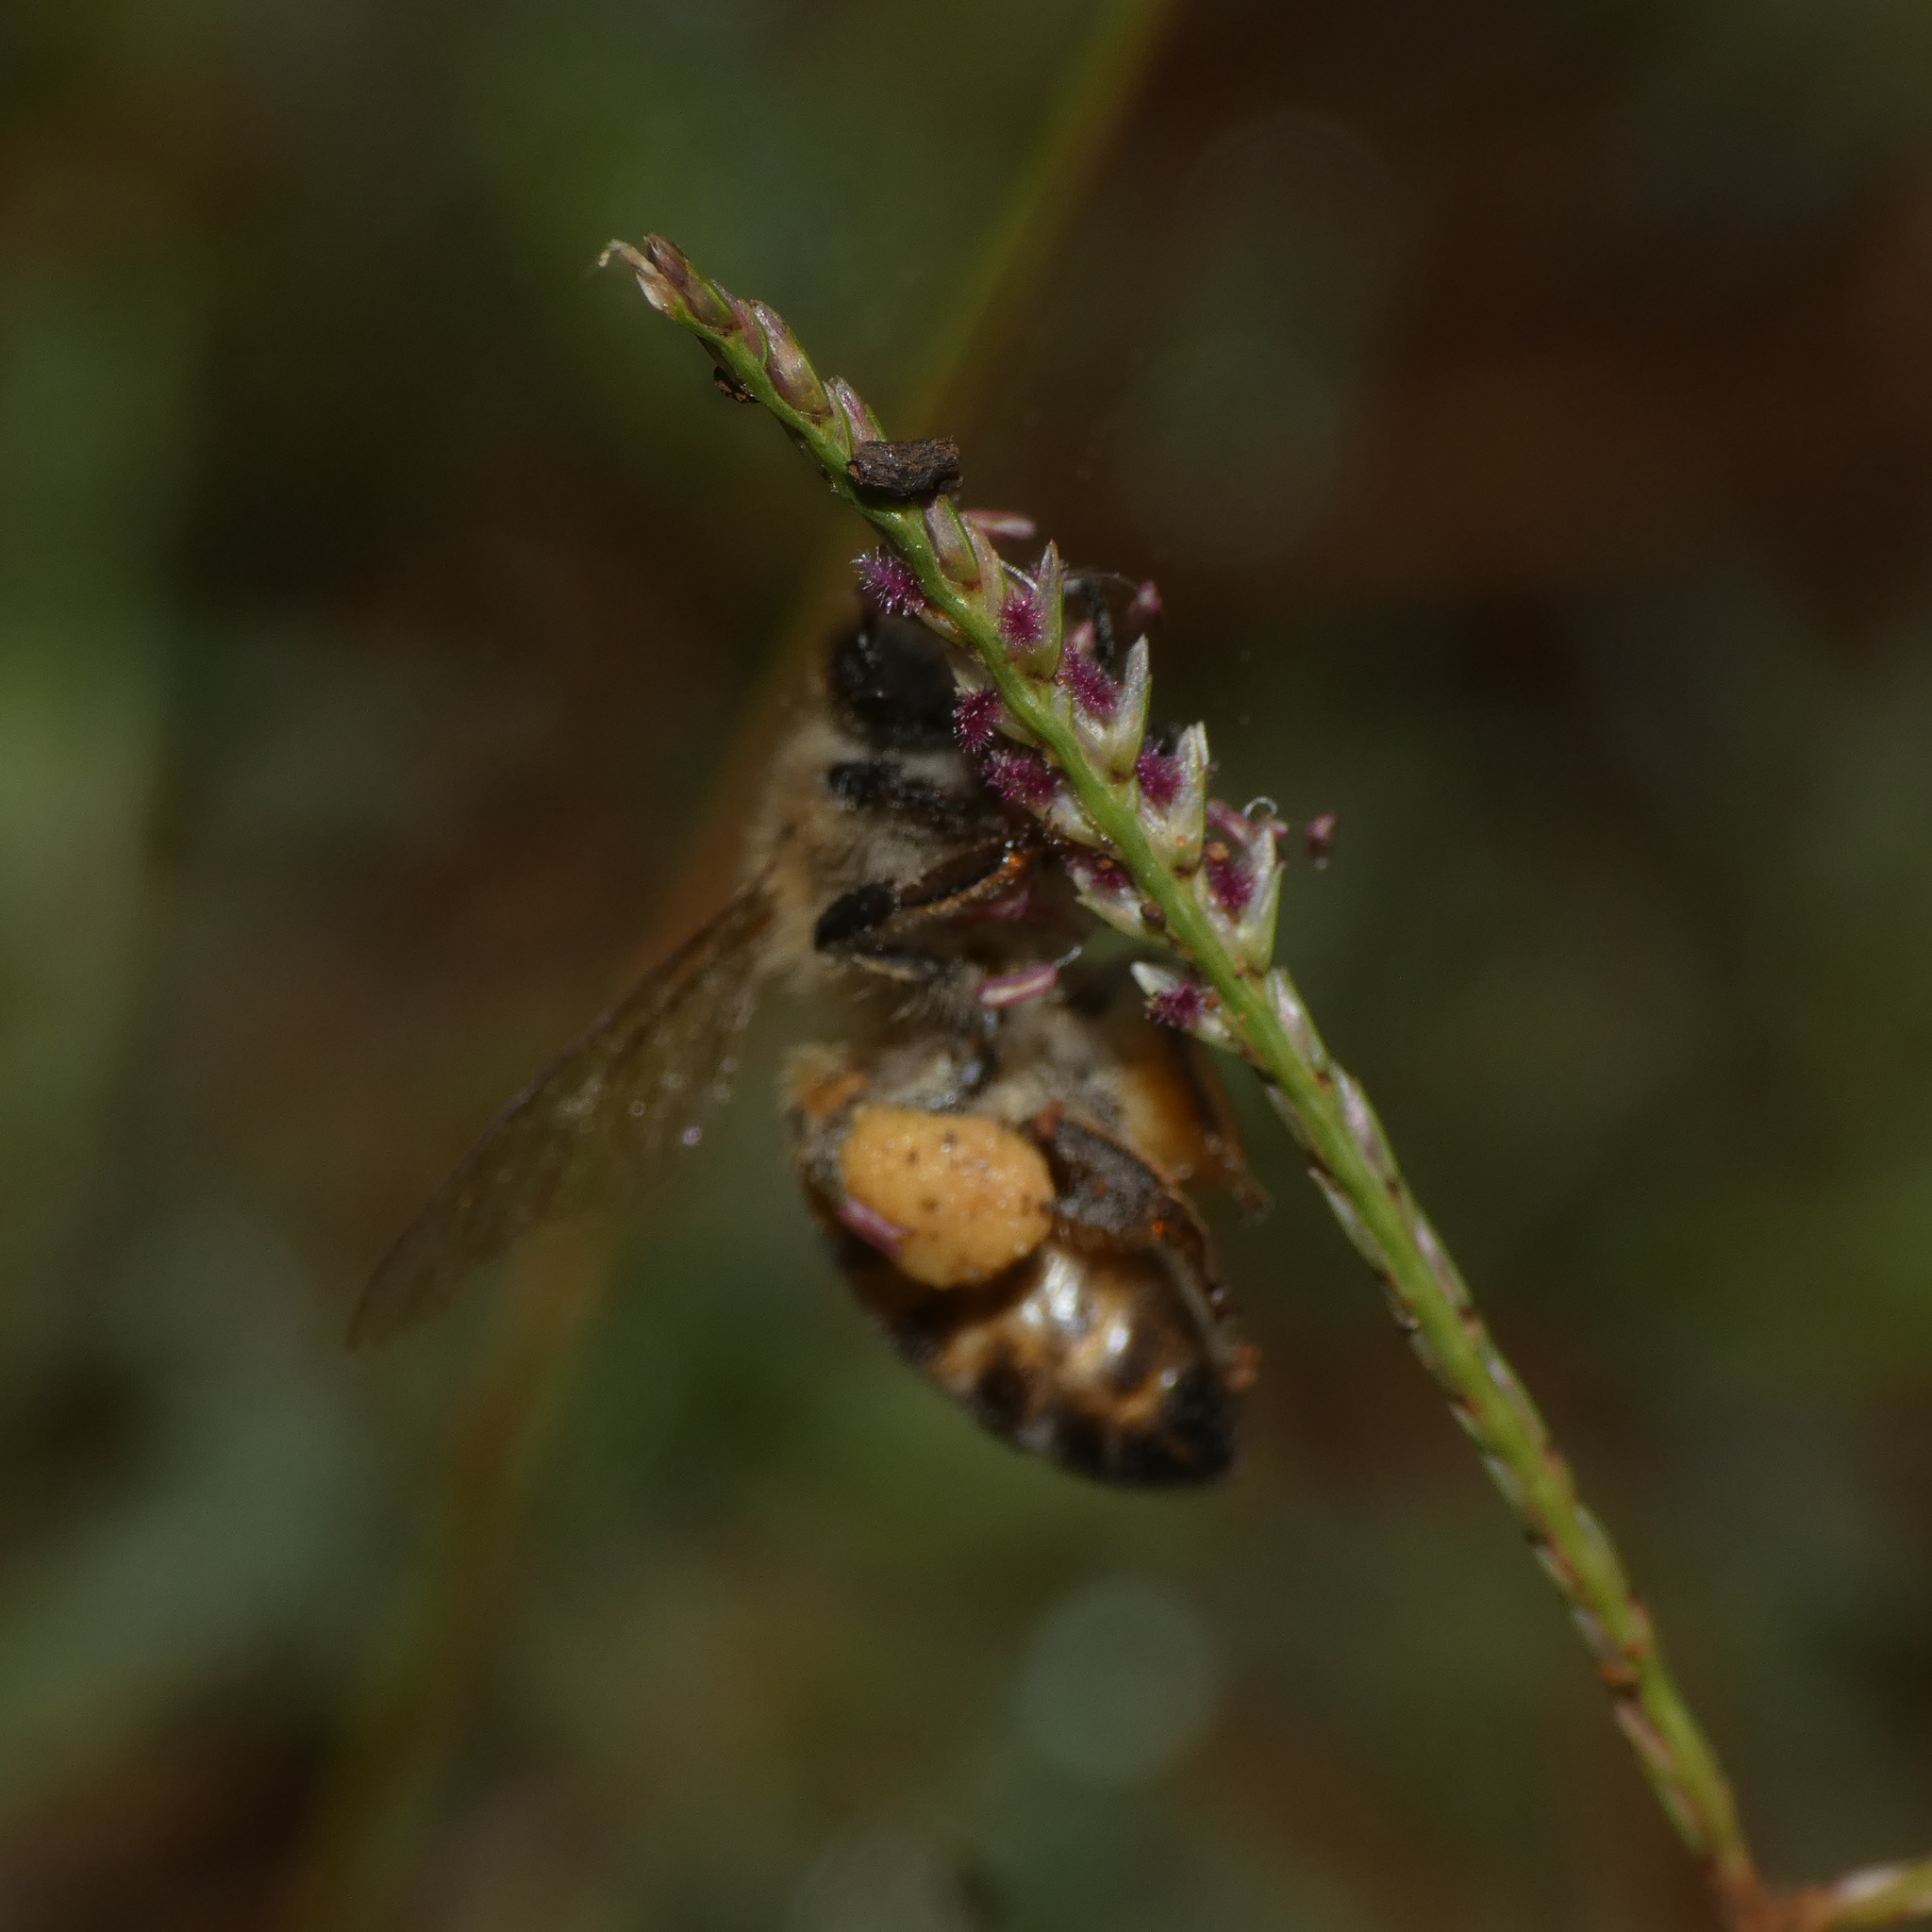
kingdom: Animalia
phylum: Arthropoda
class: Insecta
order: Hymenoptera
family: Apidae
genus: Apis
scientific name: Apis mellifera
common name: Honey bee
